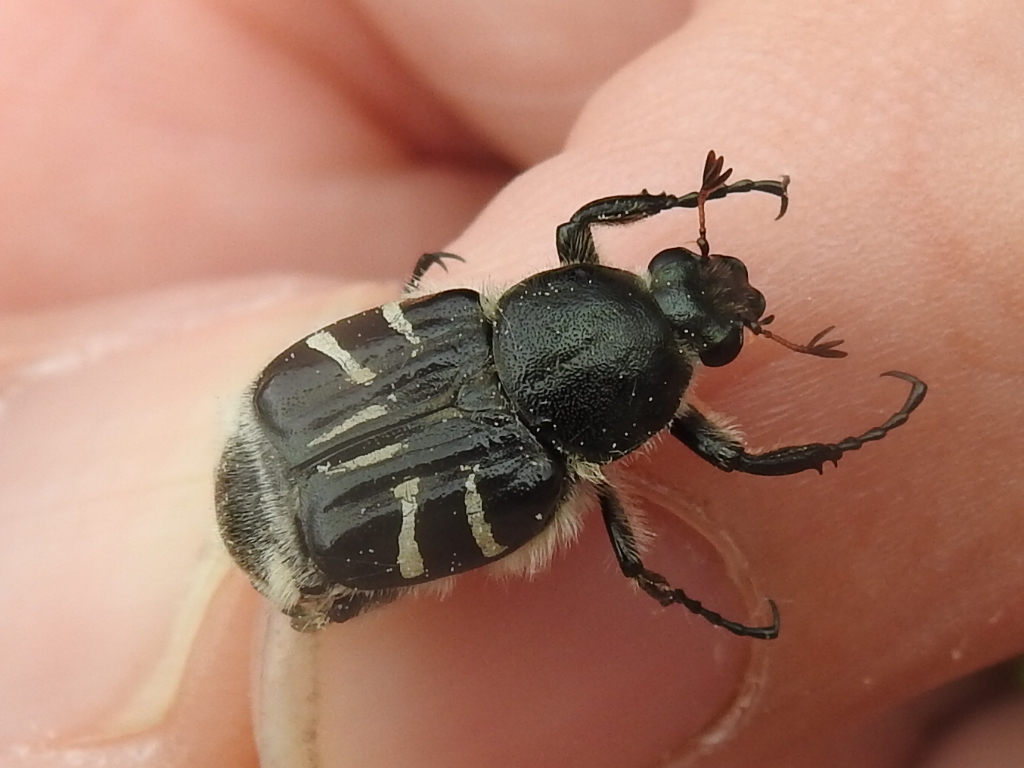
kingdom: Animalia
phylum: Arthropoda
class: Insecta
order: Coleoptera
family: Scarabaeidae
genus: Trichiotinus
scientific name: Trichiotinus texanus
